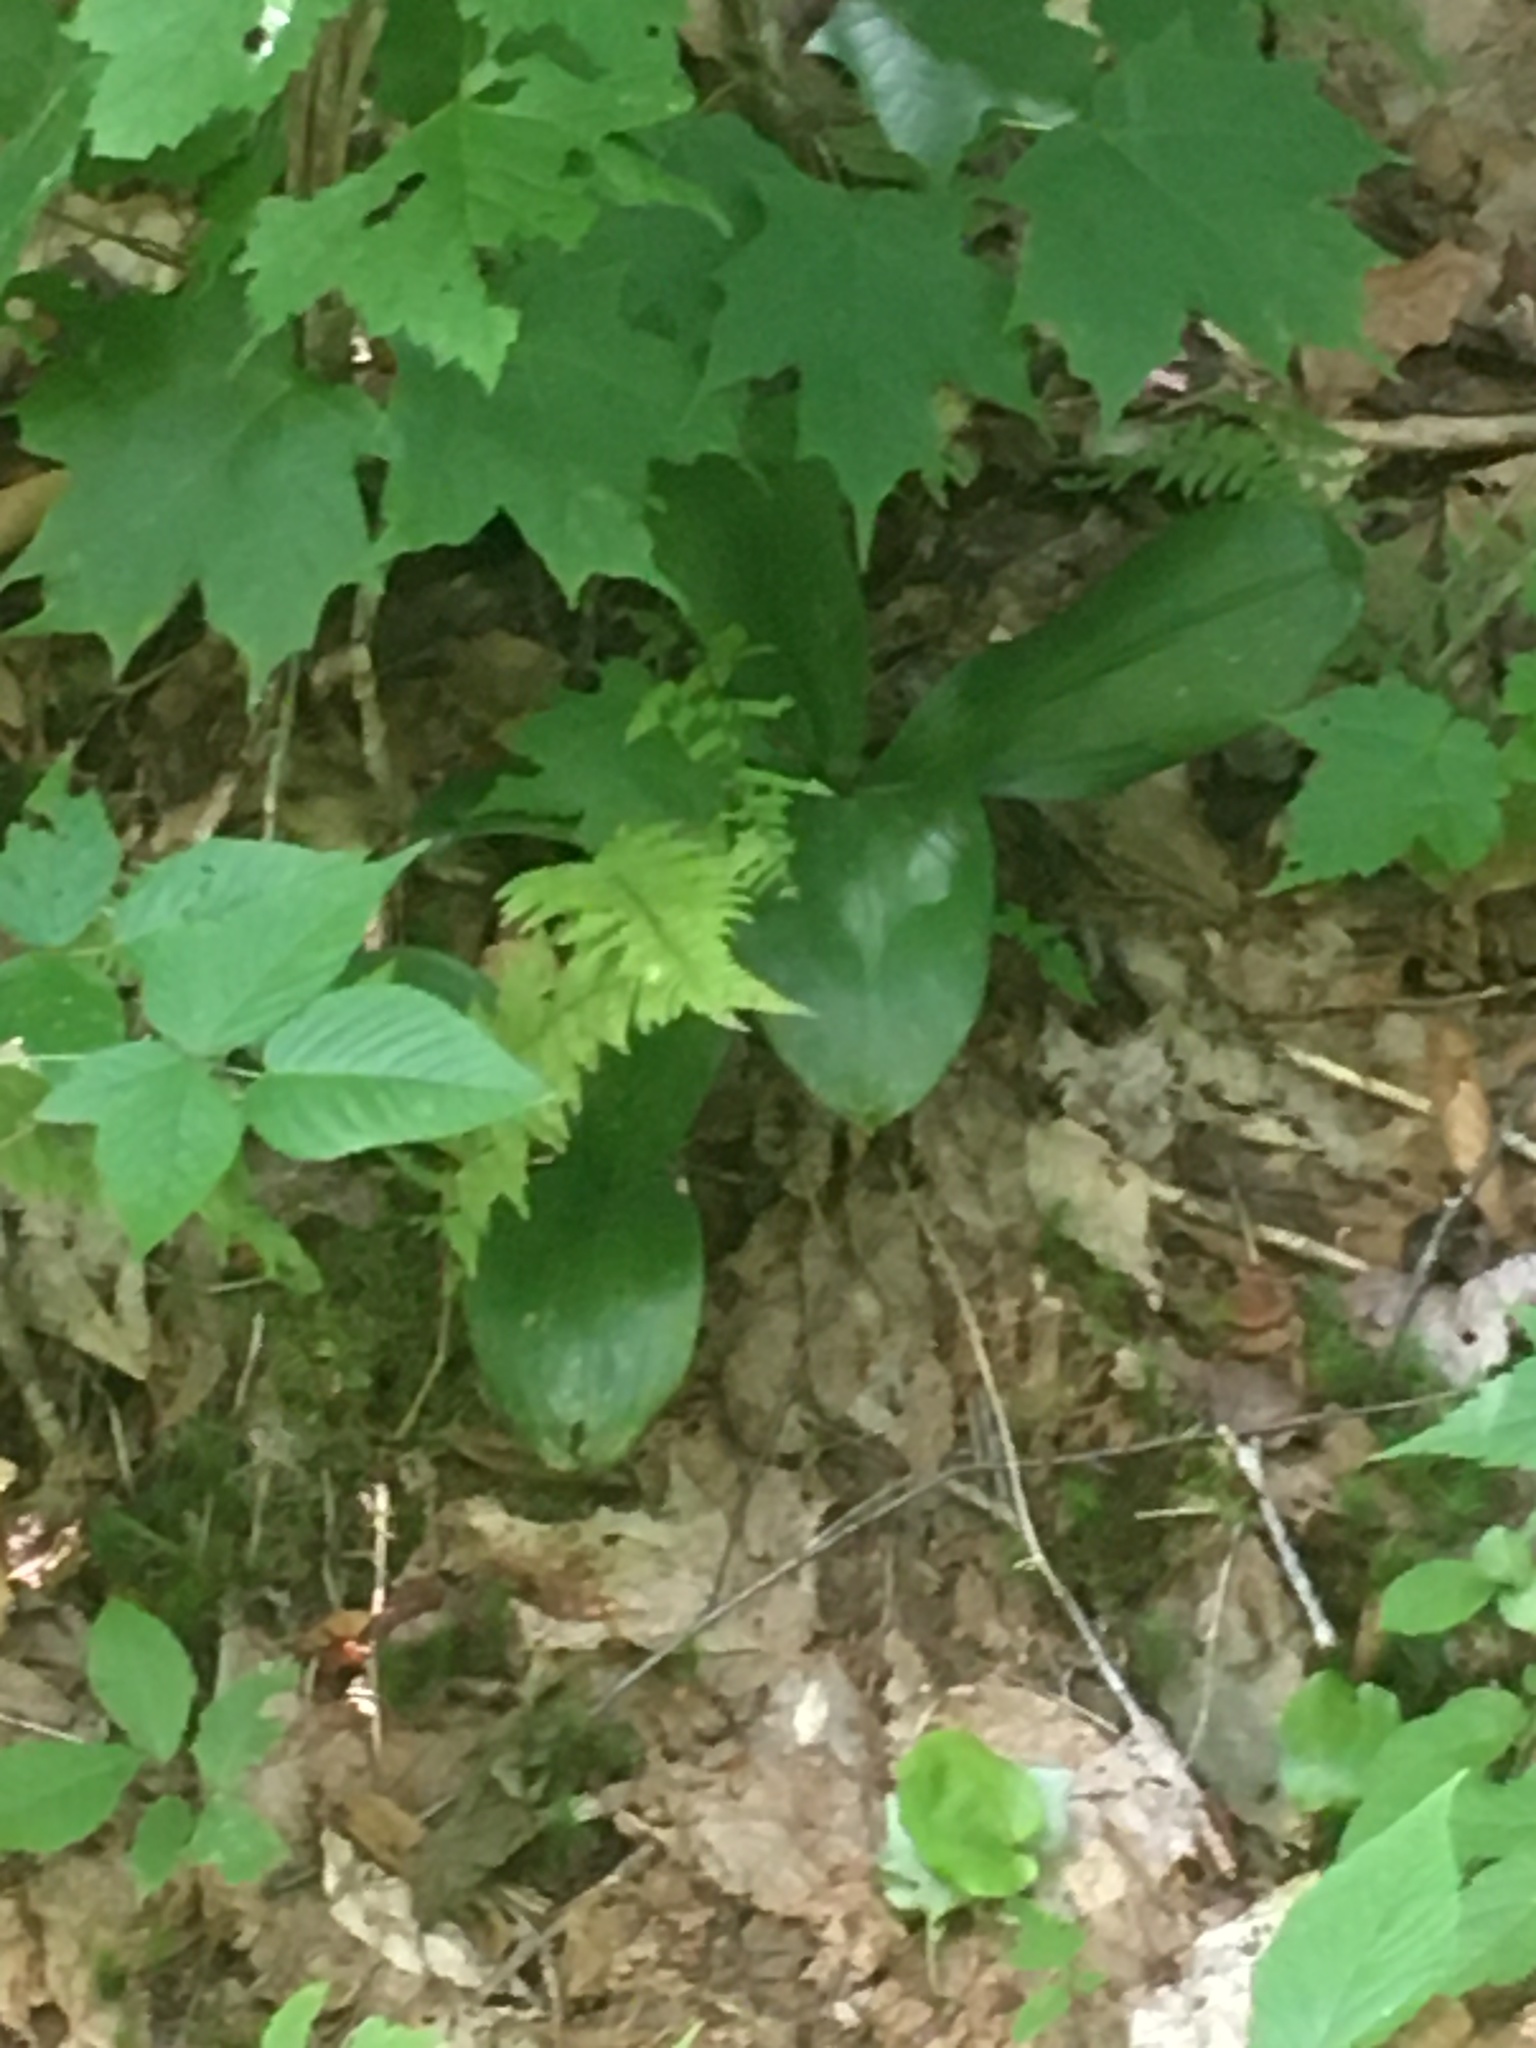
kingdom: Plantae
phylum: Tracheophyta
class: Liliopsida
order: Liliales
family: Liliaceae
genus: Clintonia
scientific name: Clintonia borealis
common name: Yellow clintonia
